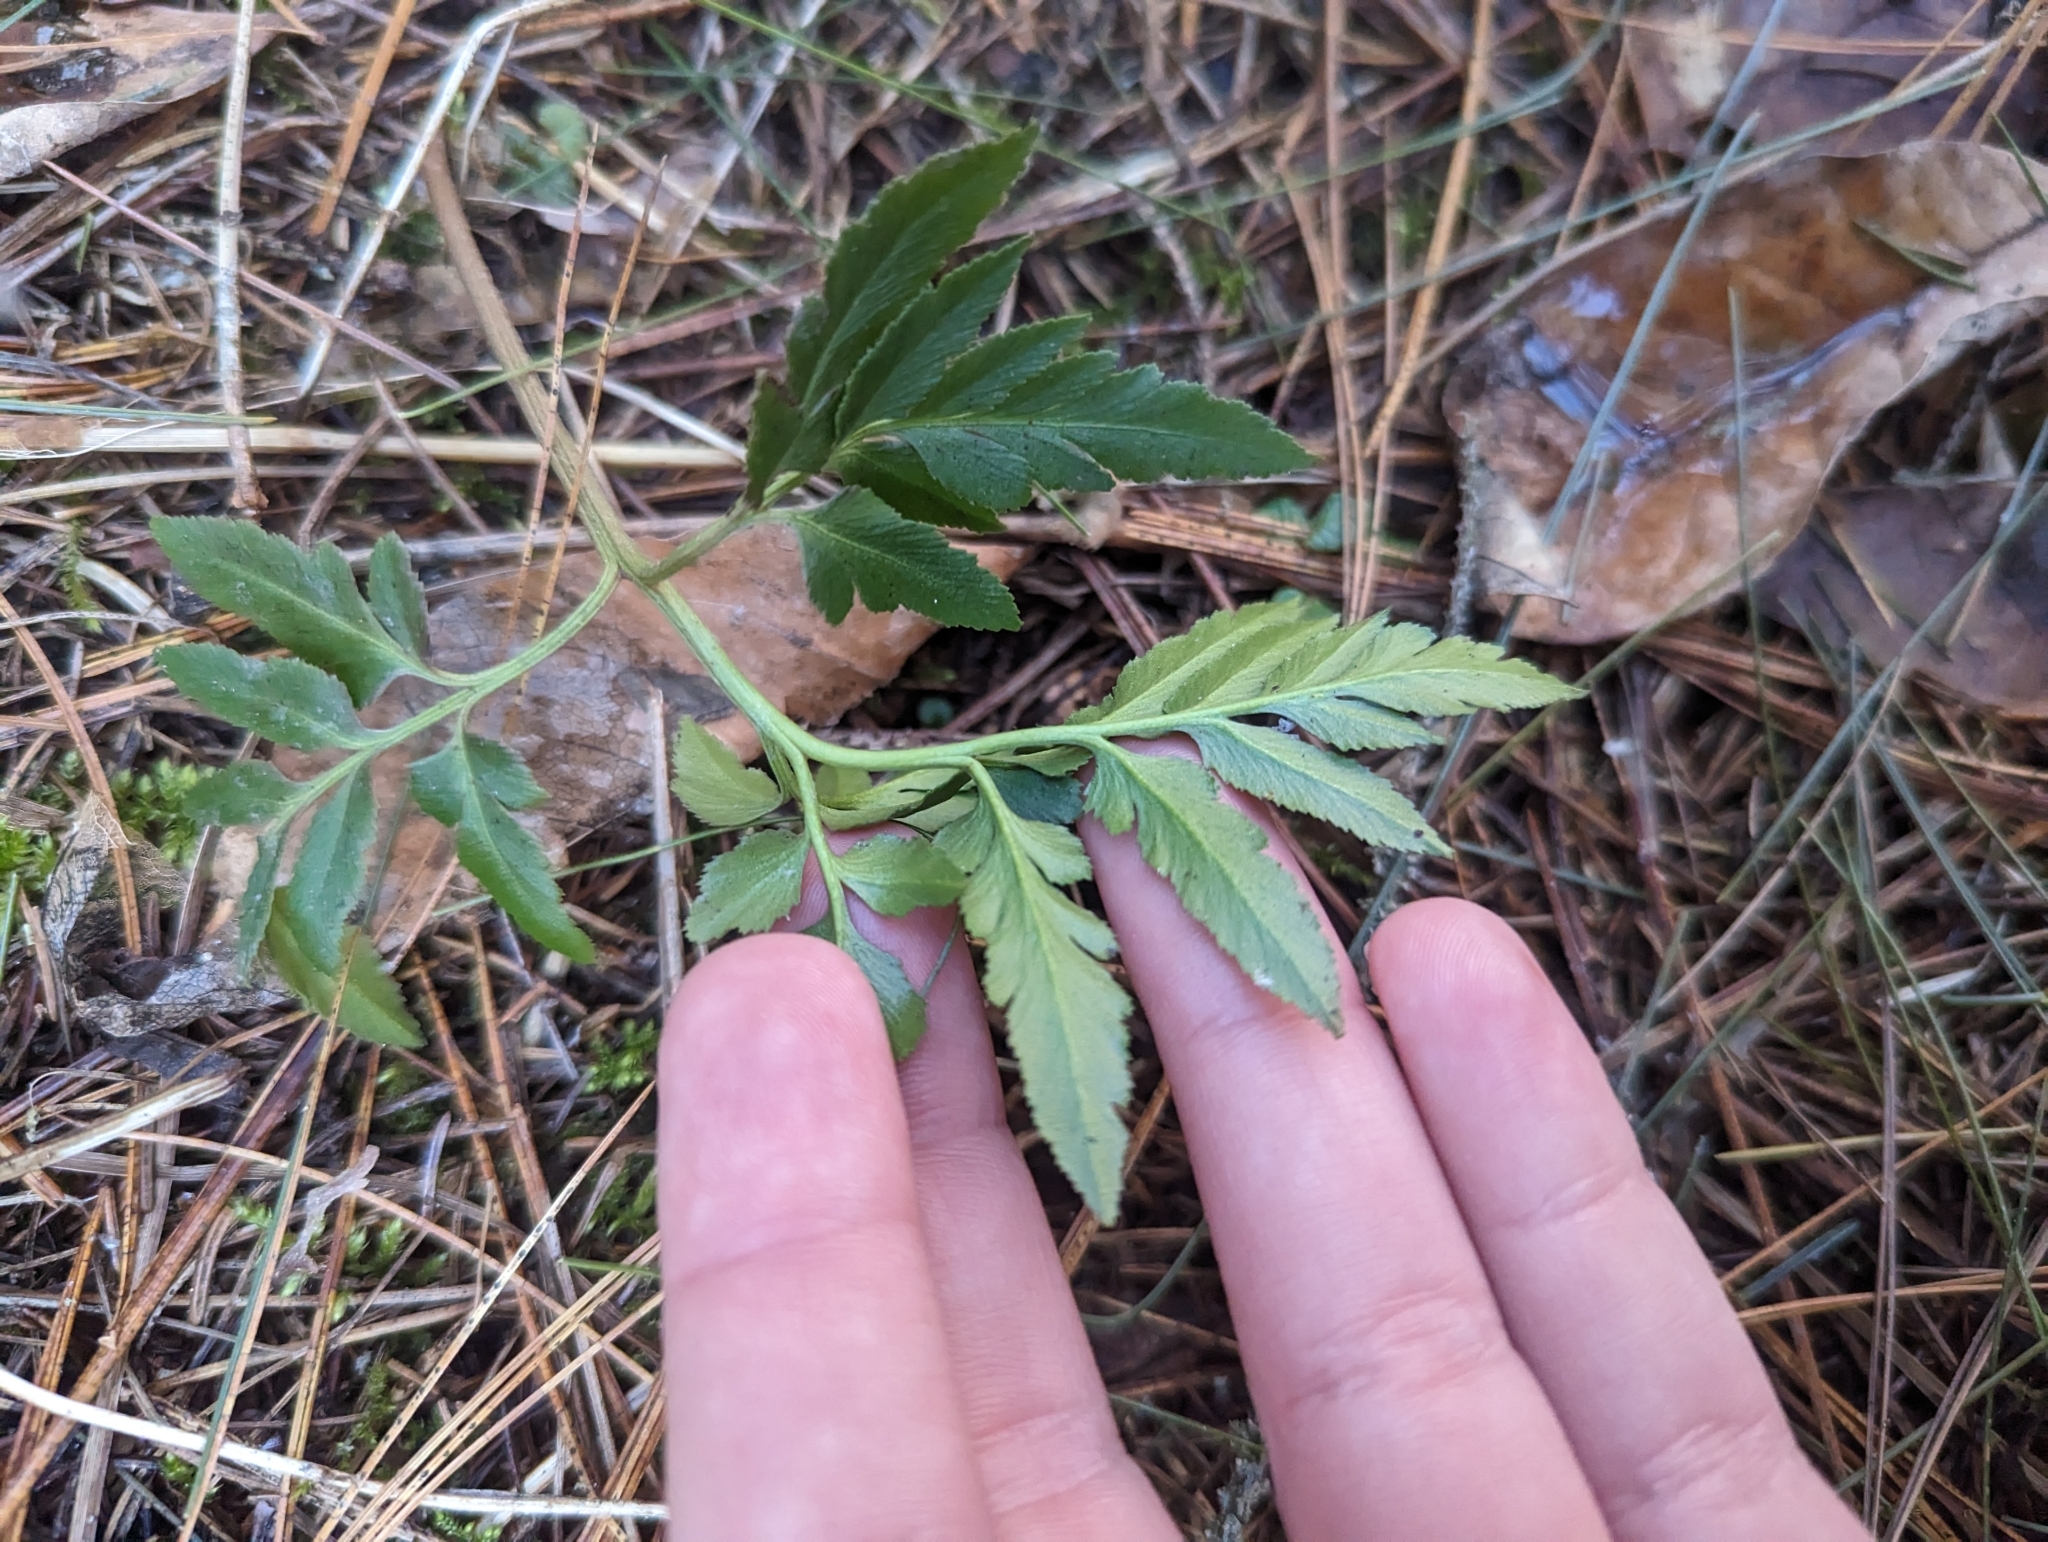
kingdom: Plantae
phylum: Tracheophyta
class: Polypodiopsida
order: Ophioglossales
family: Ophioglossaceae
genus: Sceptridium
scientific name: Sceptridium dissectum
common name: Cut-leaved grapefern
